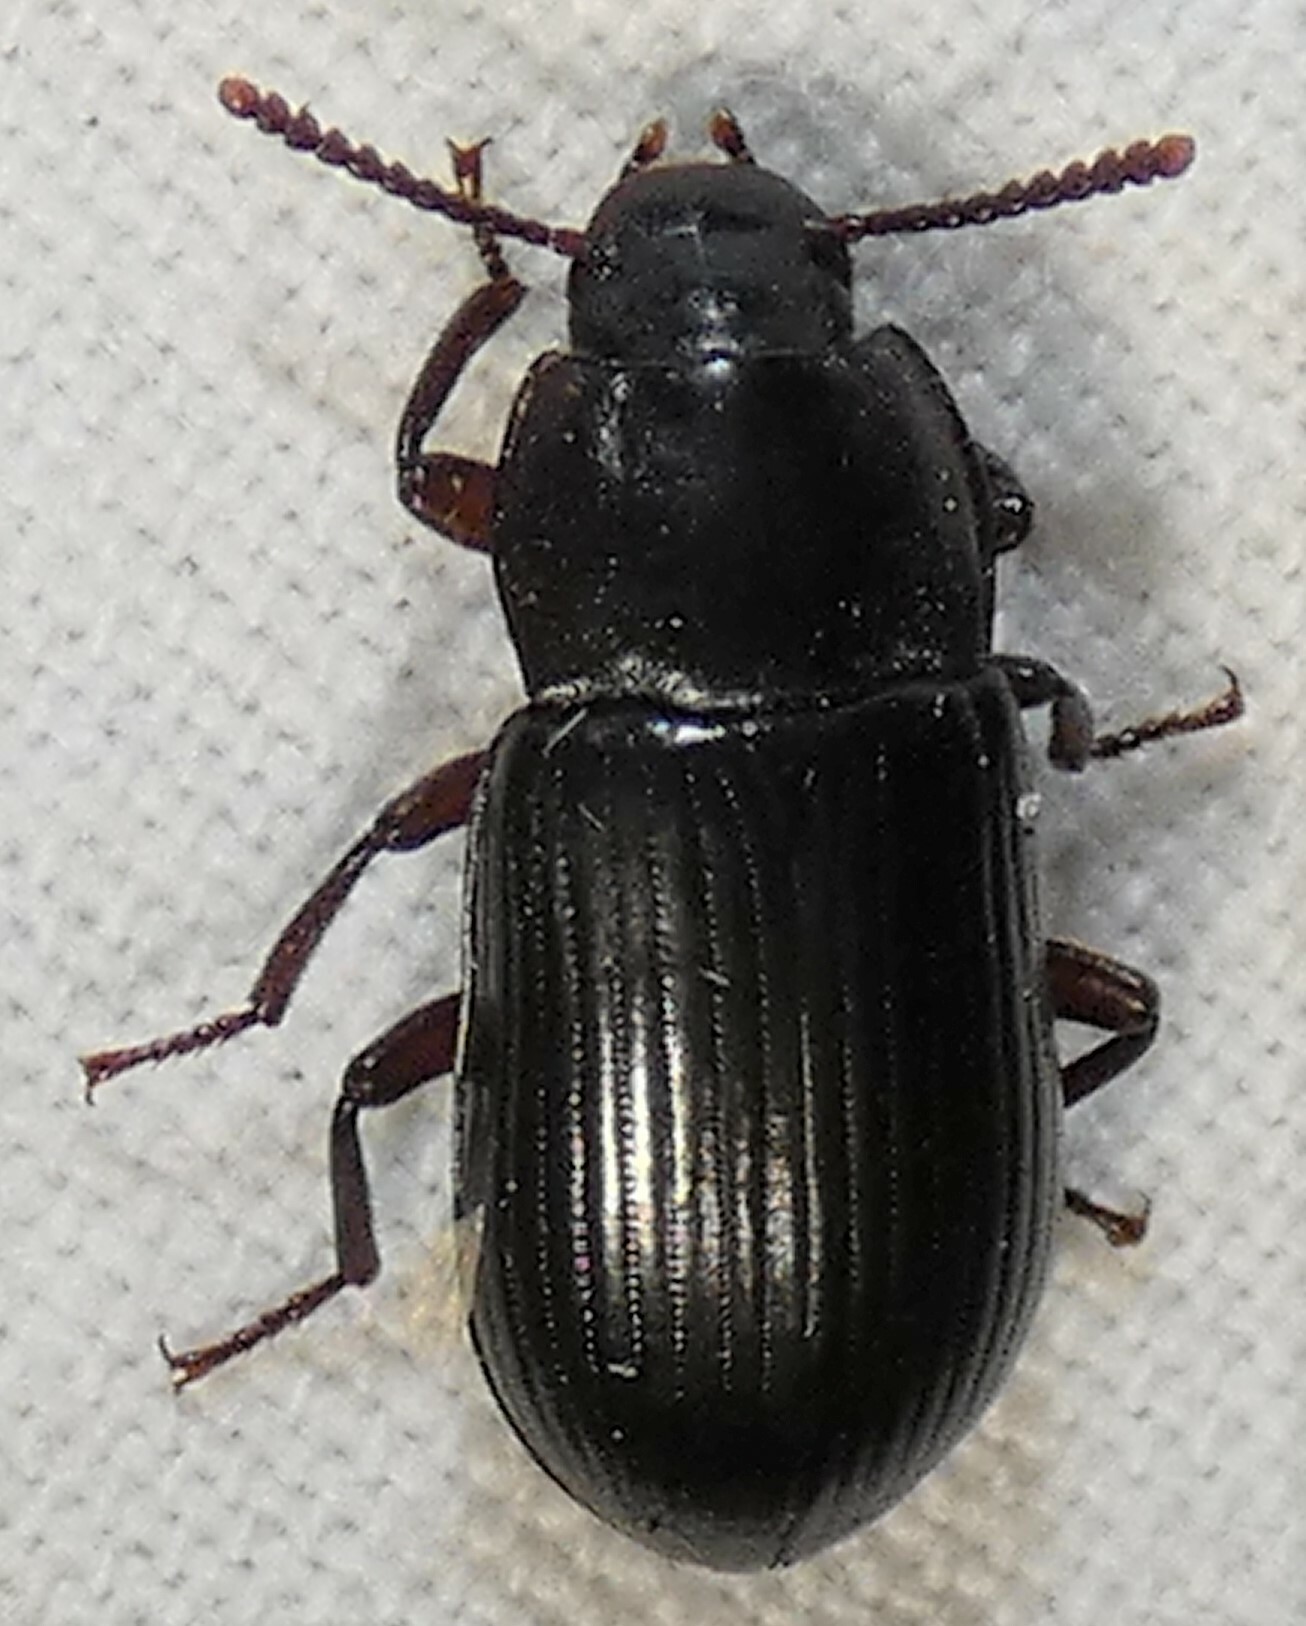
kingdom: Animalia
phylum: Arthropoda
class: Insecta
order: Coleoptera
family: Tenebrionidae
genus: Neatus
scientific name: Neatus tenebrioides
